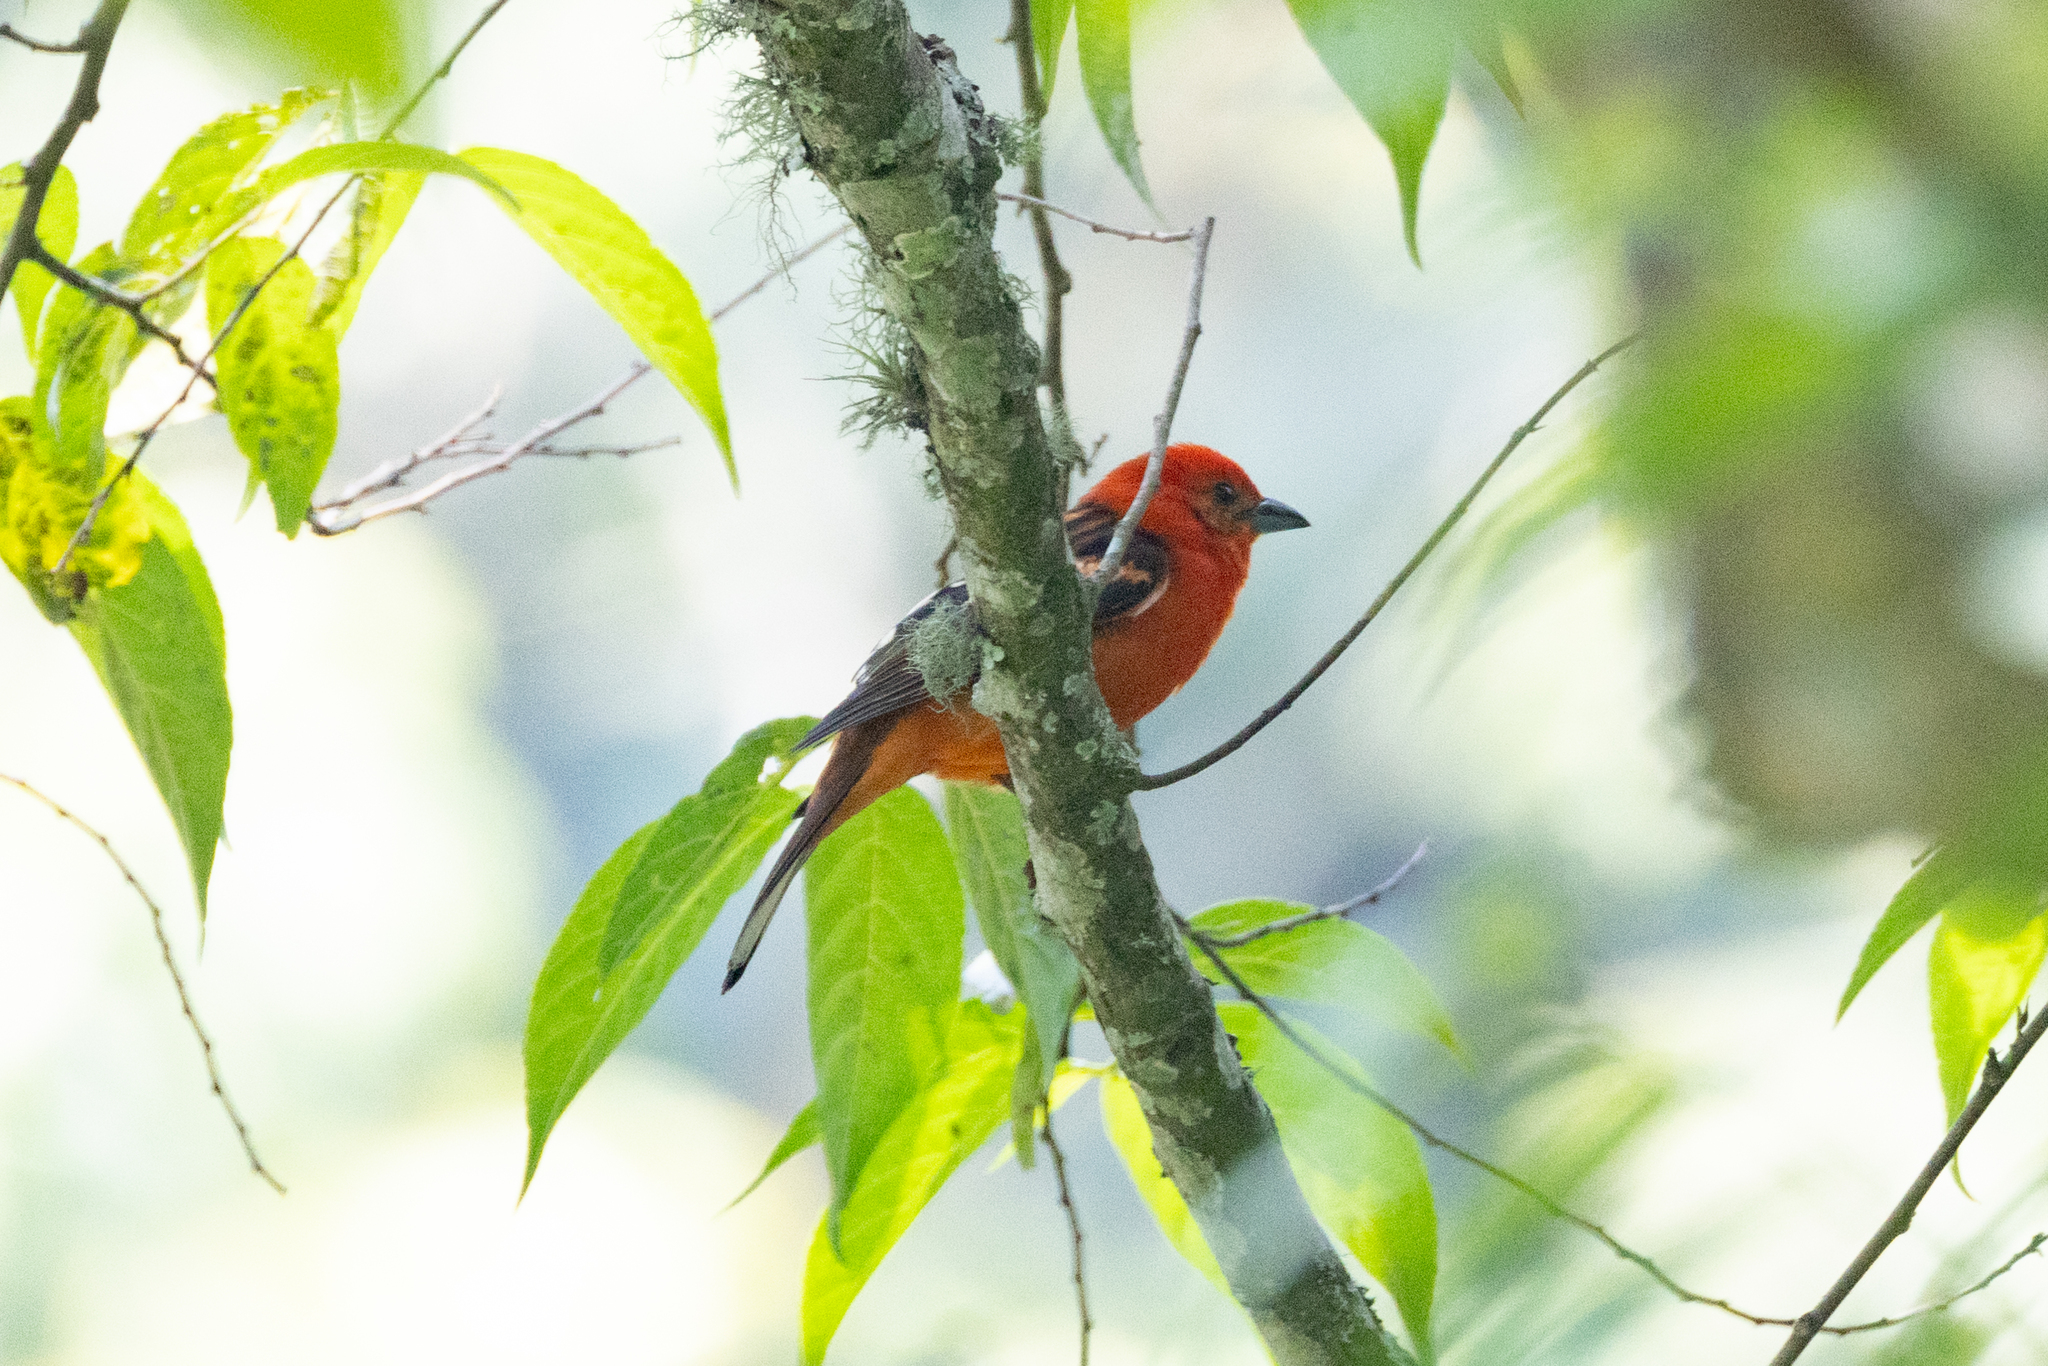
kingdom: Animalia
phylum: Chordata
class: Aves
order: Passeriformes
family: Cardinalidae
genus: Piranga
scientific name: Piranga bidentata
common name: Flame-colored tanager
